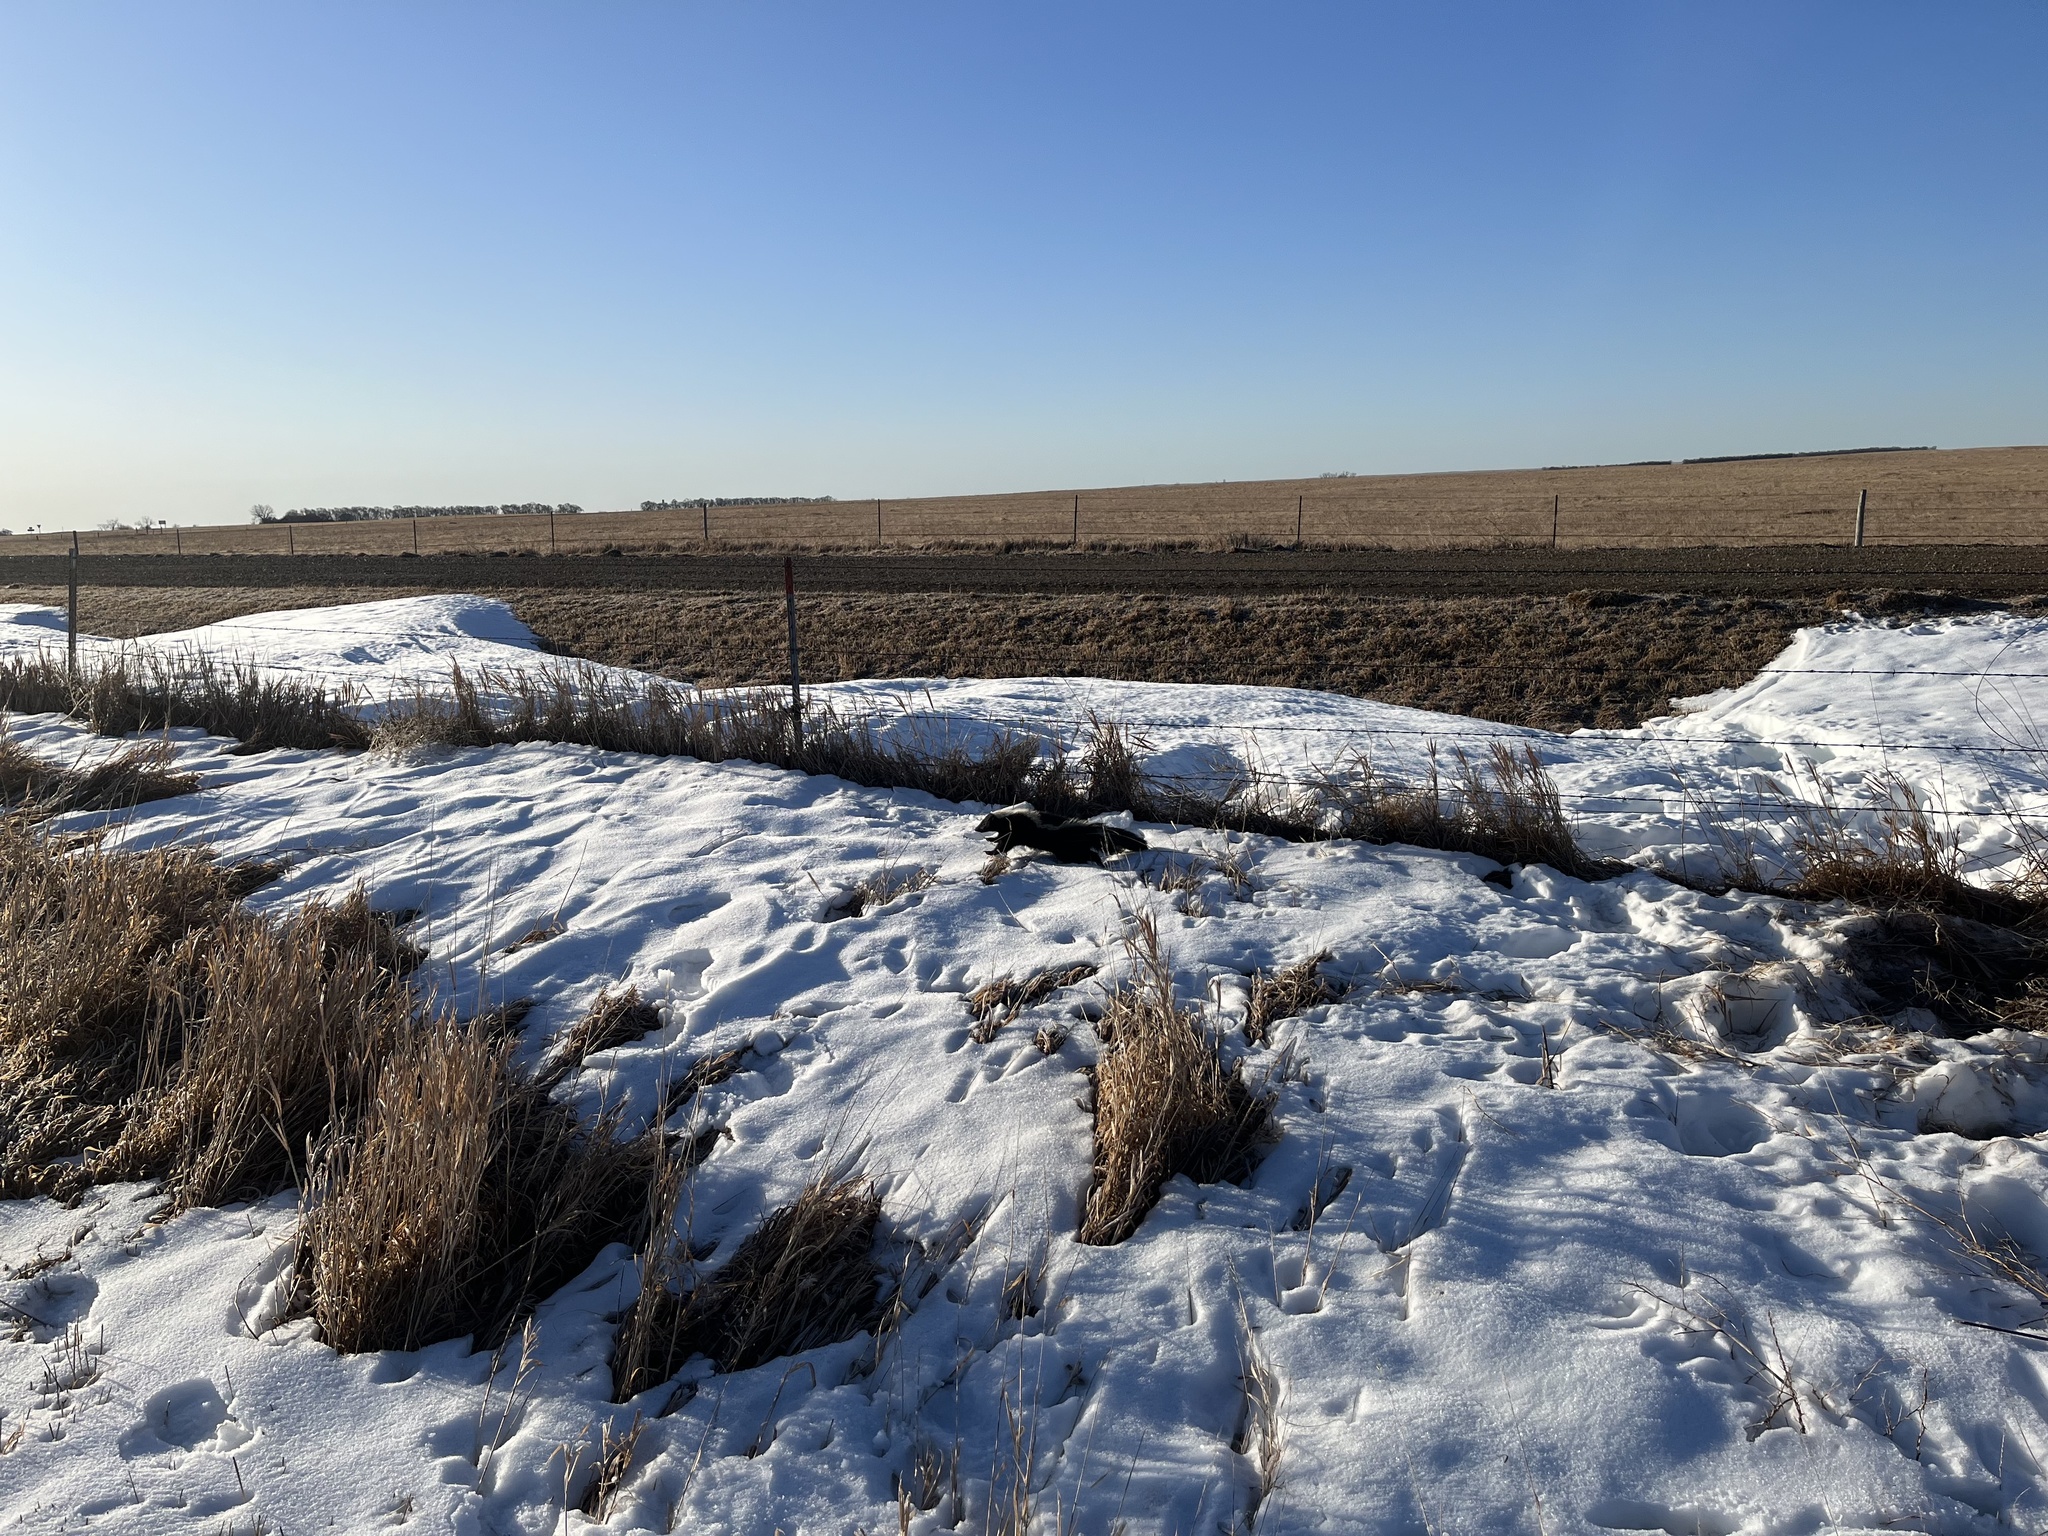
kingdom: Animalia
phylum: Chordata
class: Mammalia
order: Carnivora
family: Mephitidae
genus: Mephitis
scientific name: Mephitis mephitis
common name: Striped skunk
